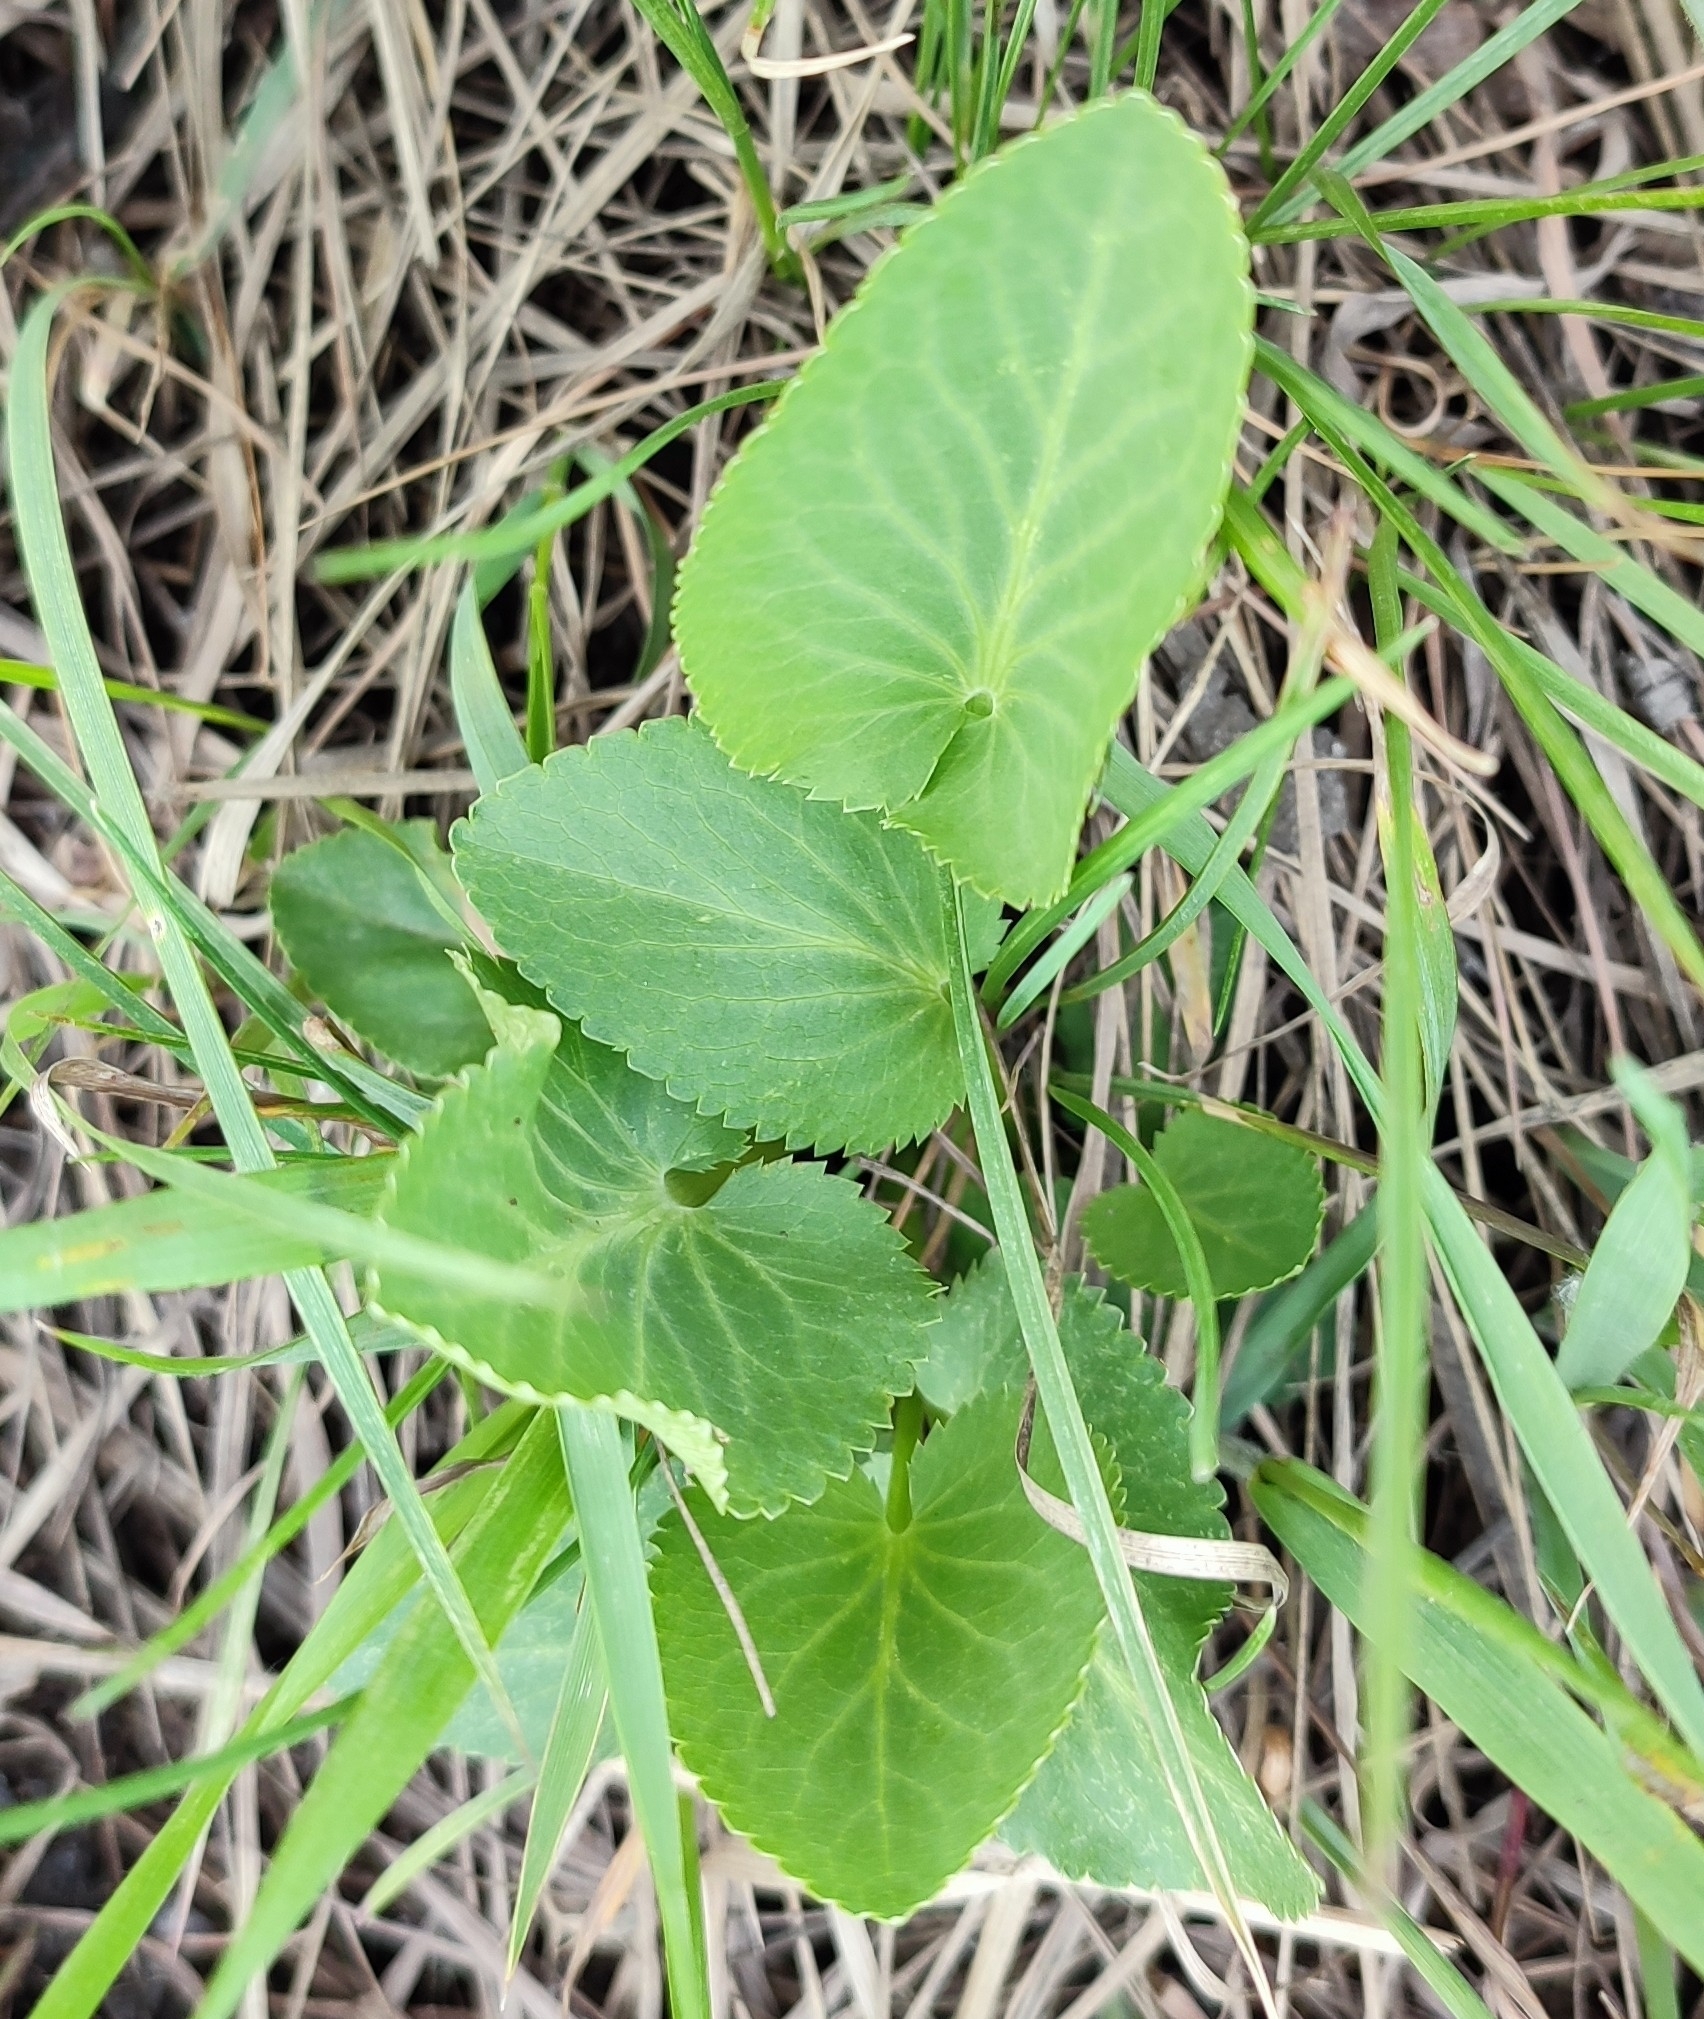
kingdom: Plantae
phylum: Tracheophyta
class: Magnoliopsida
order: Apiales
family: Apiaceae
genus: Eryngium
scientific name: Eryngium planum
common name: Blue eryngo
